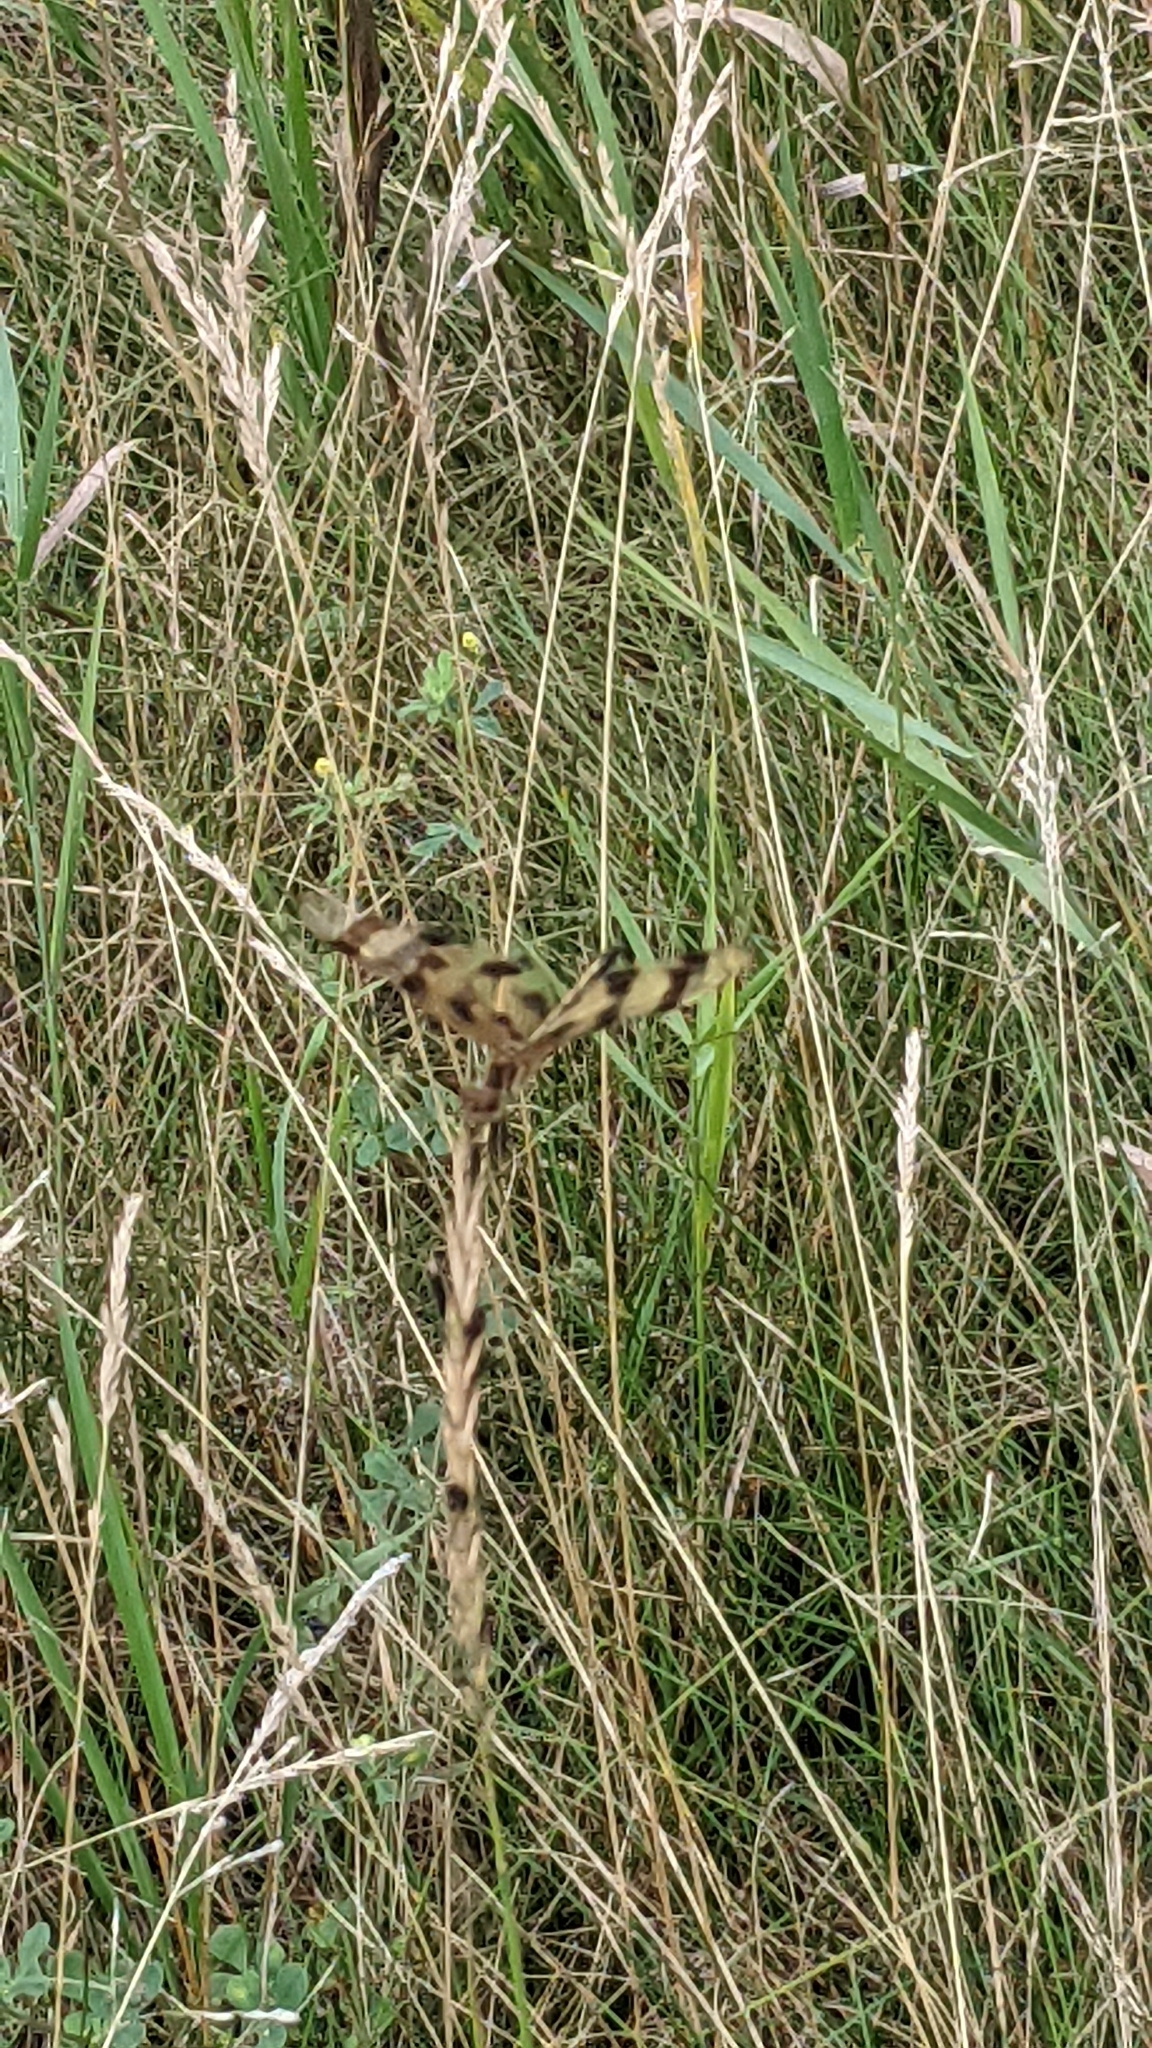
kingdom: Animalia
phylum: Arthropoda
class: Insecta
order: Odonata
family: Libellulidae
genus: Celithemis
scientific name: Celithemis eponina
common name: Halloween pennant
